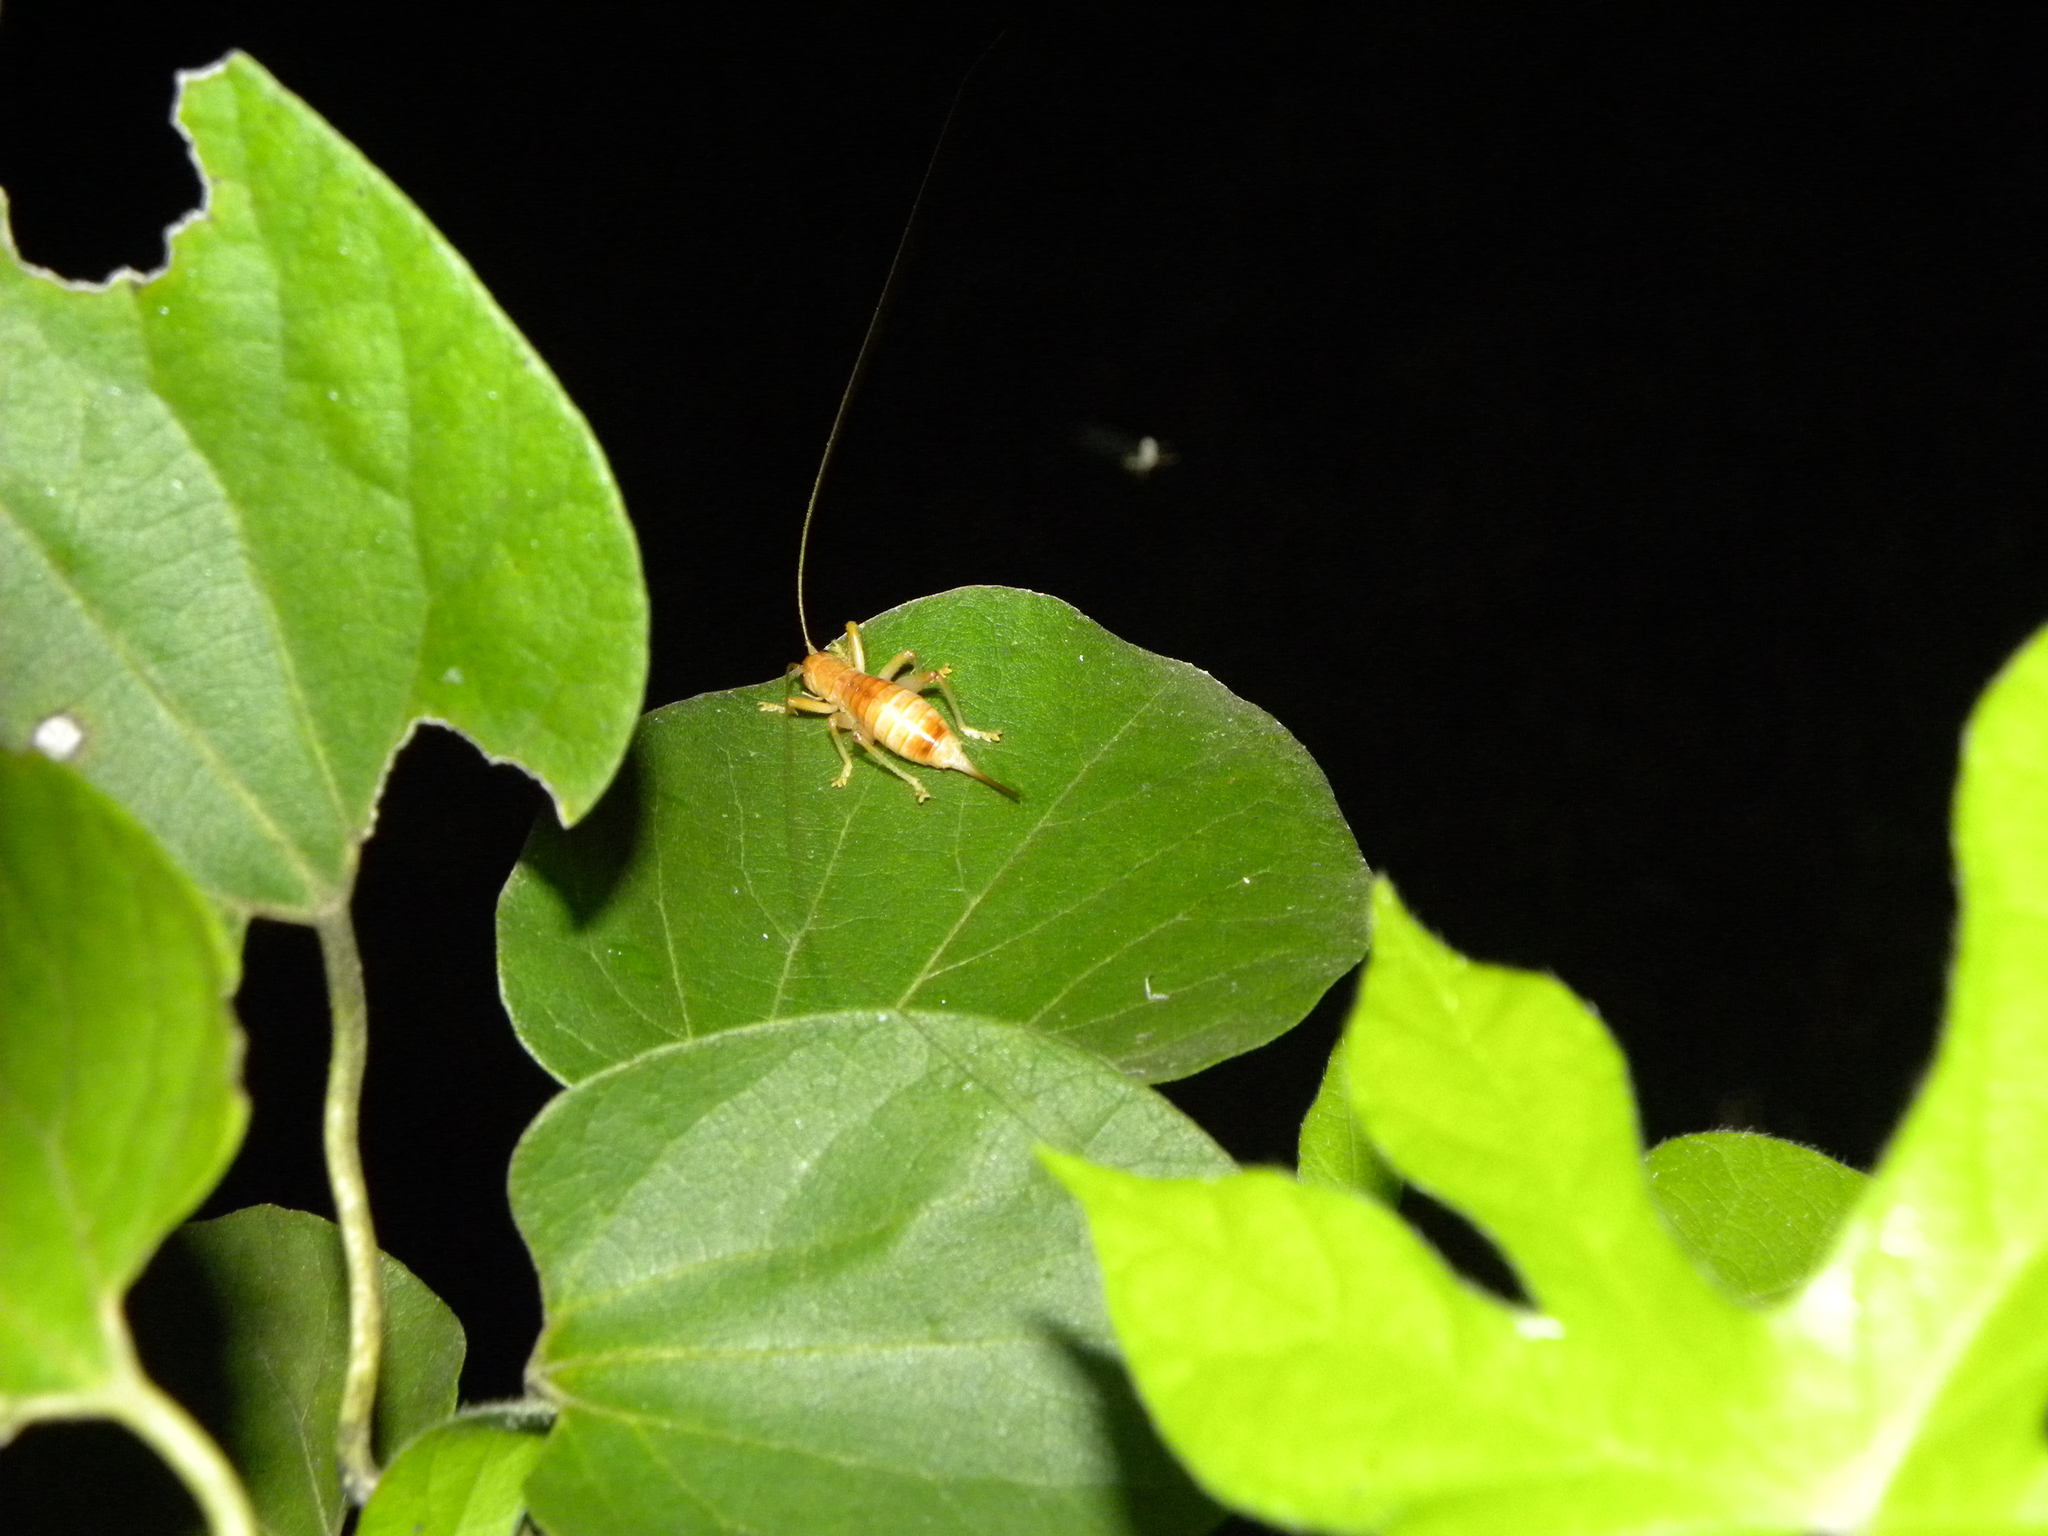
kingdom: Animalia
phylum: Arthropoda
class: Insecta
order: Orthoptera
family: Gryllacrididae
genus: Camptonotus
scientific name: Camptonotus carolinensis
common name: Carolina leaf-roller
